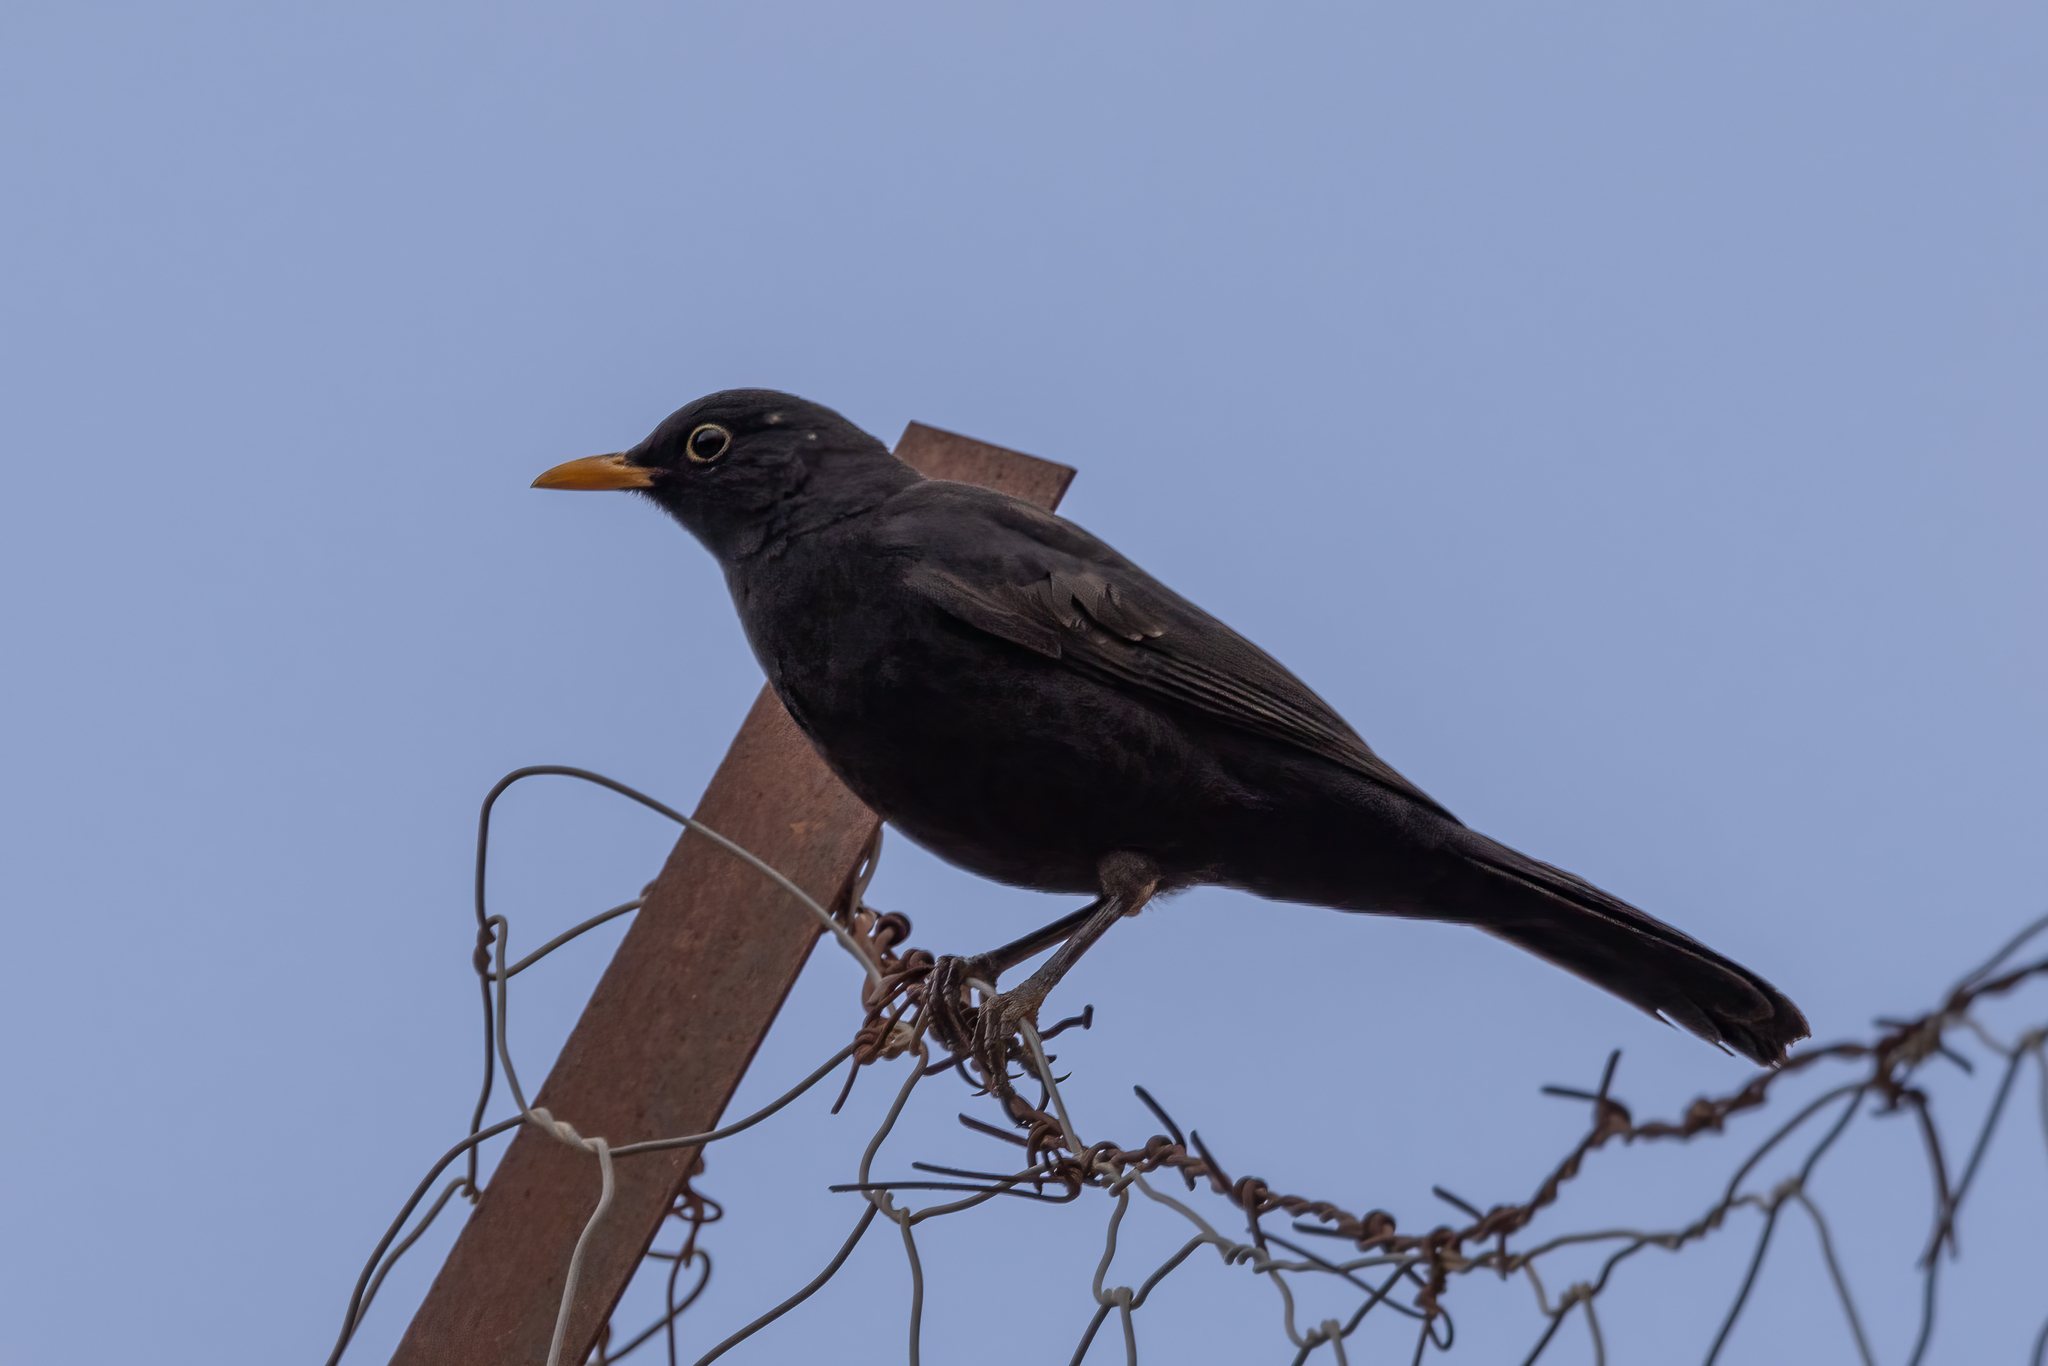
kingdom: Animalia
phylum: Chordata
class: Aves
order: Passeriformes
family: Turdidae
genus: Turdus
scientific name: Turdus merula
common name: Common blackbird
